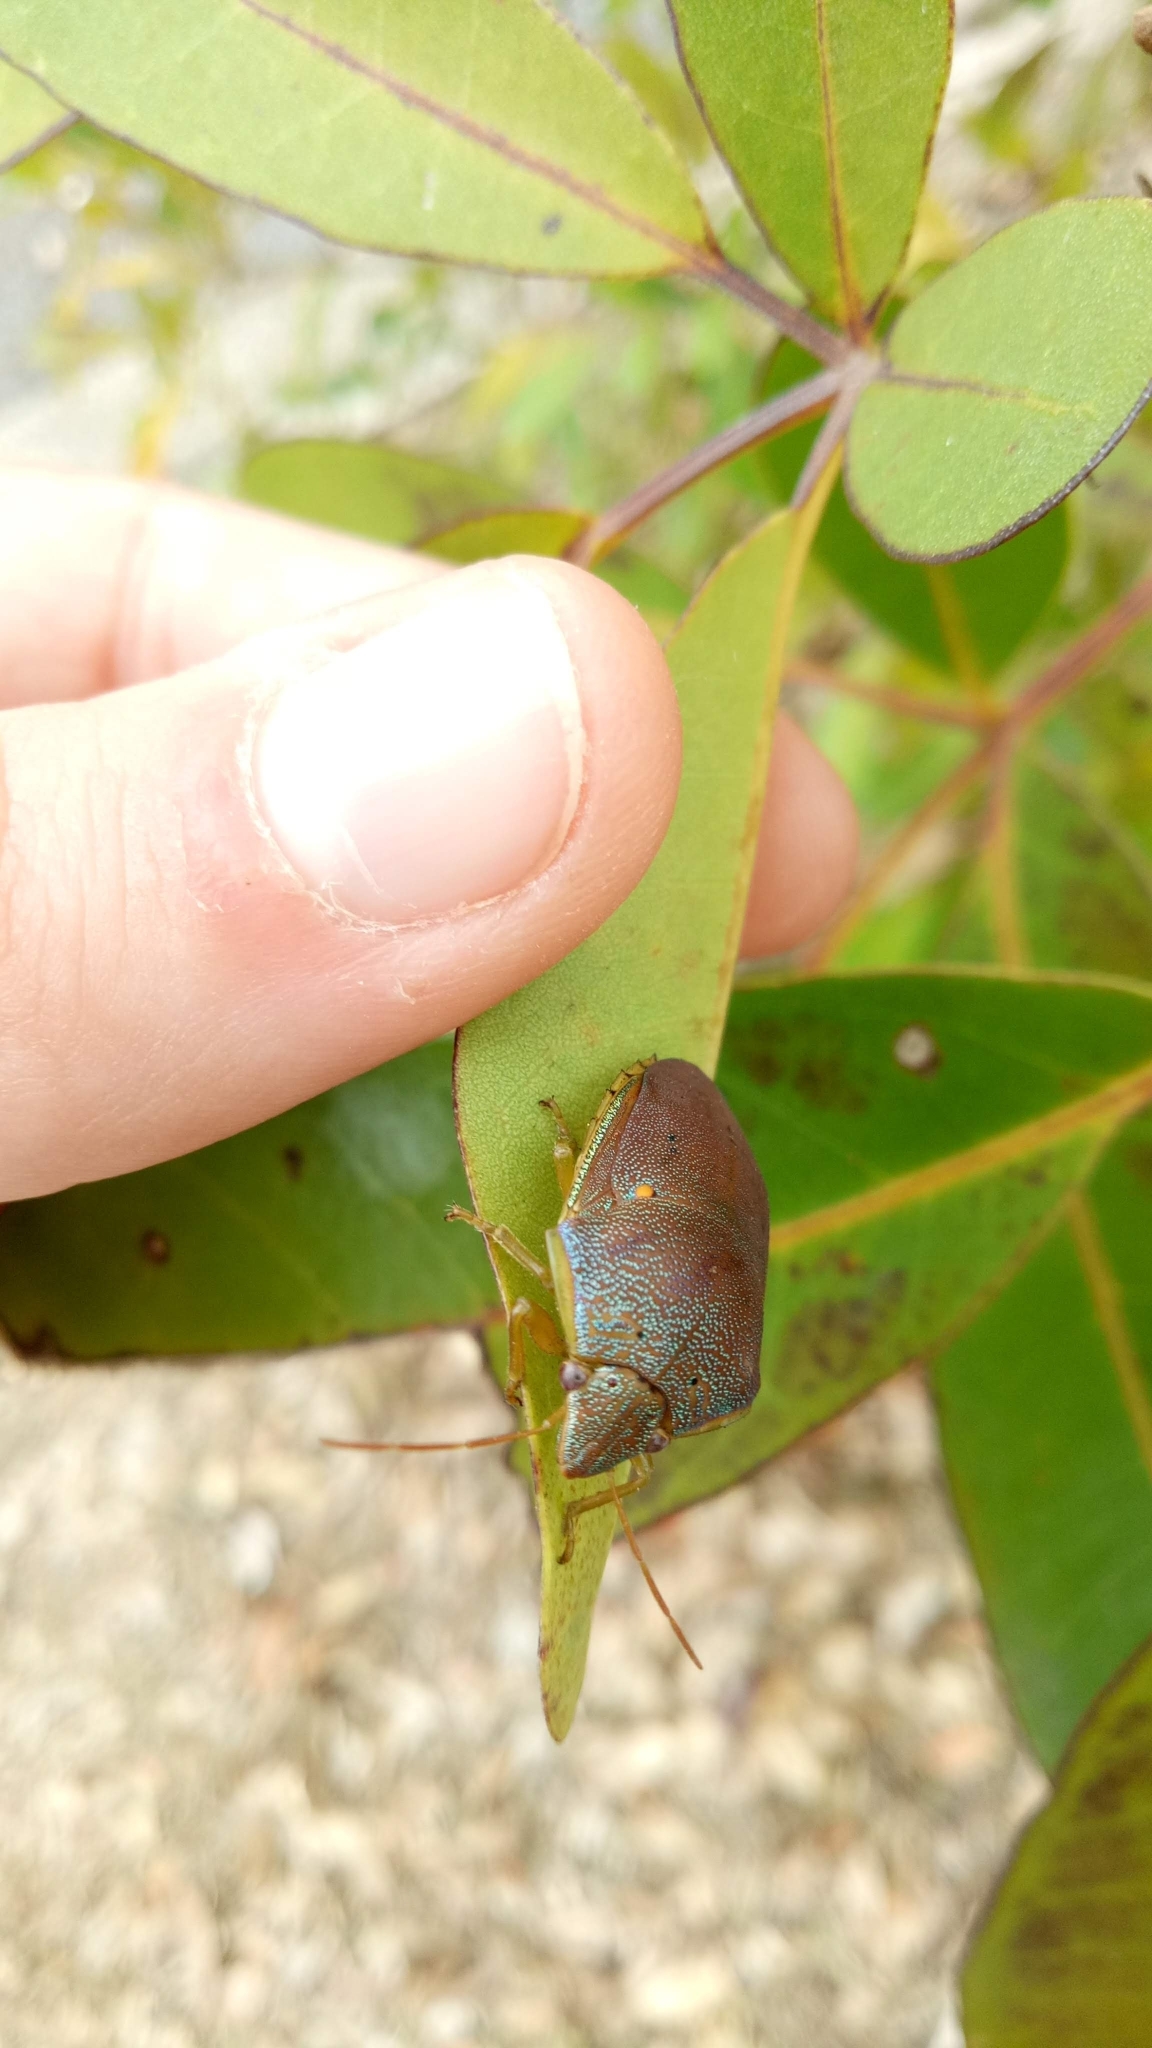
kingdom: Animalia
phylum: Arthropoda
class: Insecta
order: Hemiptera
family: Pentatomidae
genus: Coleotichus
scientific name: Coleotichus excellens
